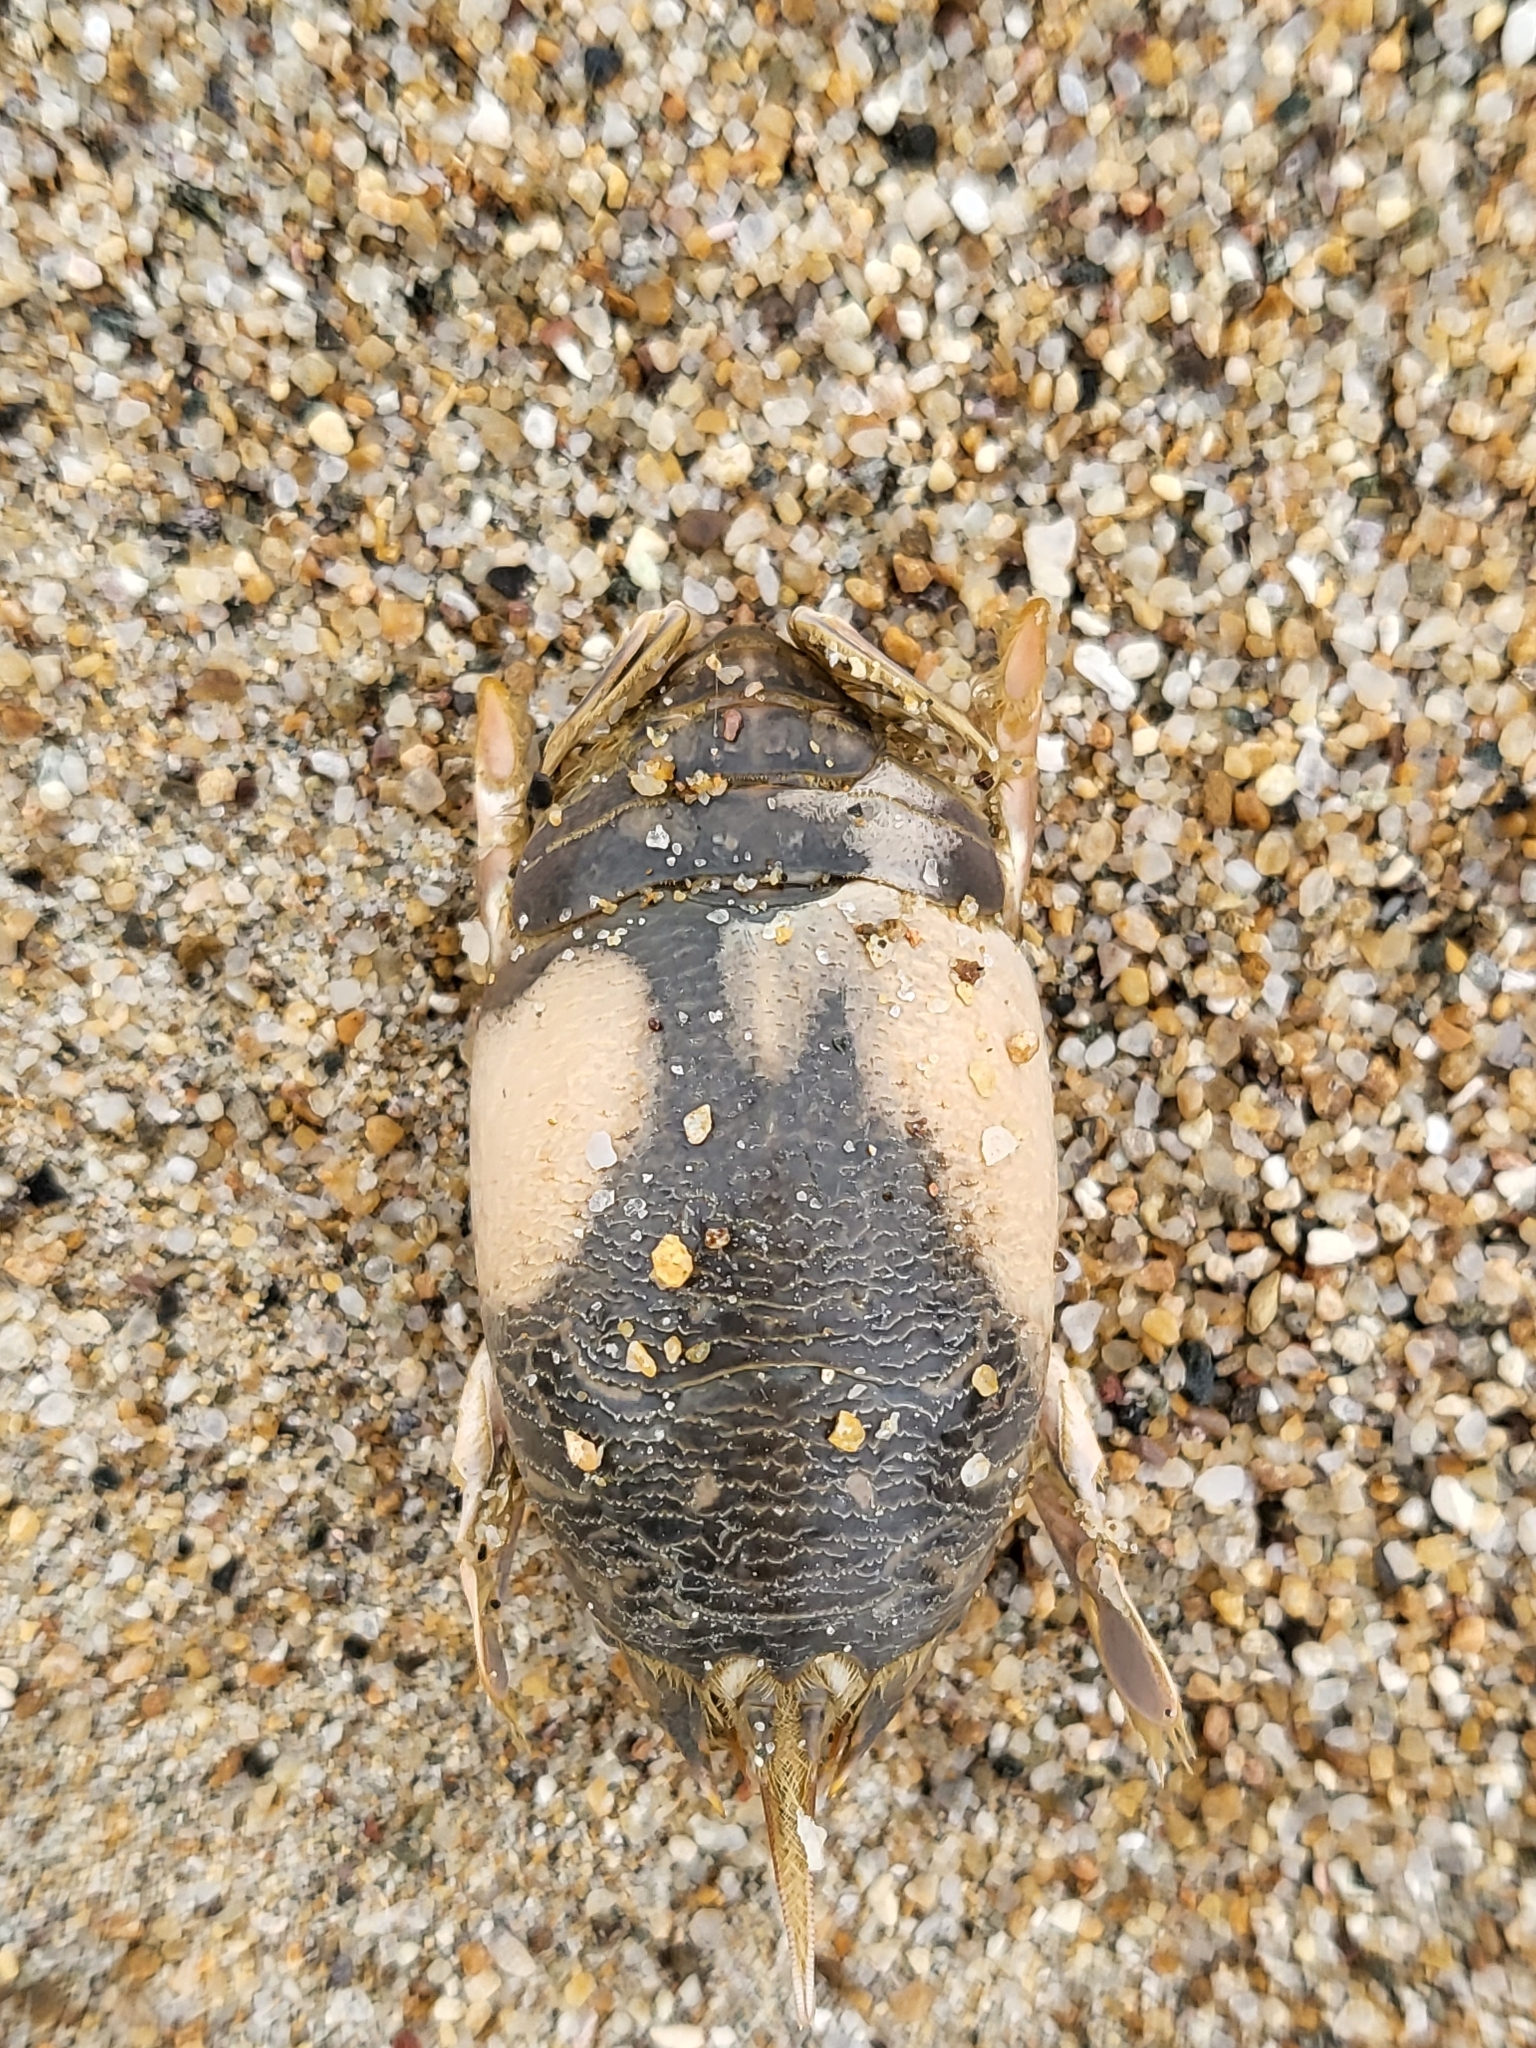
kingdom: Animalia
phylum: Arthropoda
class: Malacostraca
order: Decapoda
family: Hippidae
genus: Emerita
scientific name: Emerita analoga
